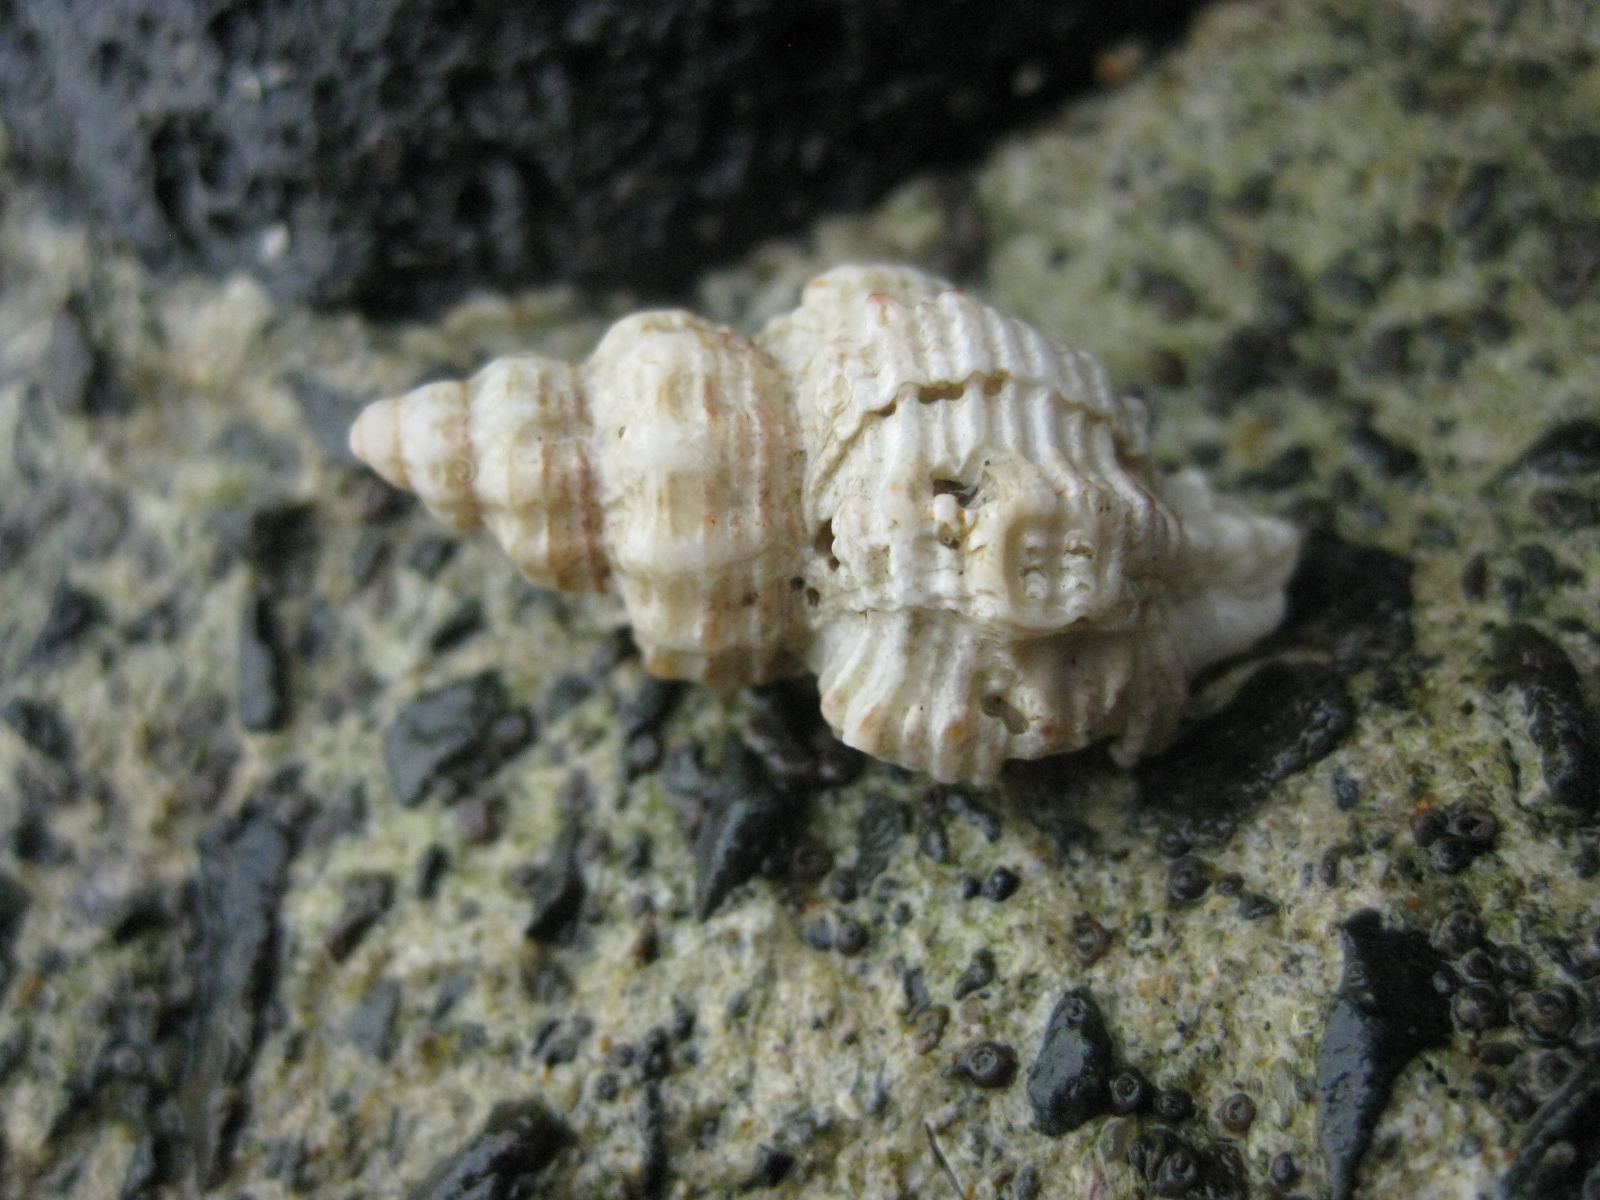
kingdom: Animalia
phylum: Mollusca
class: Gastropoda
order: Neogastropoda
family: Muricidae
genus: Murexsul
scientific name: Murexsul octogonus
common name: Octagon murex
